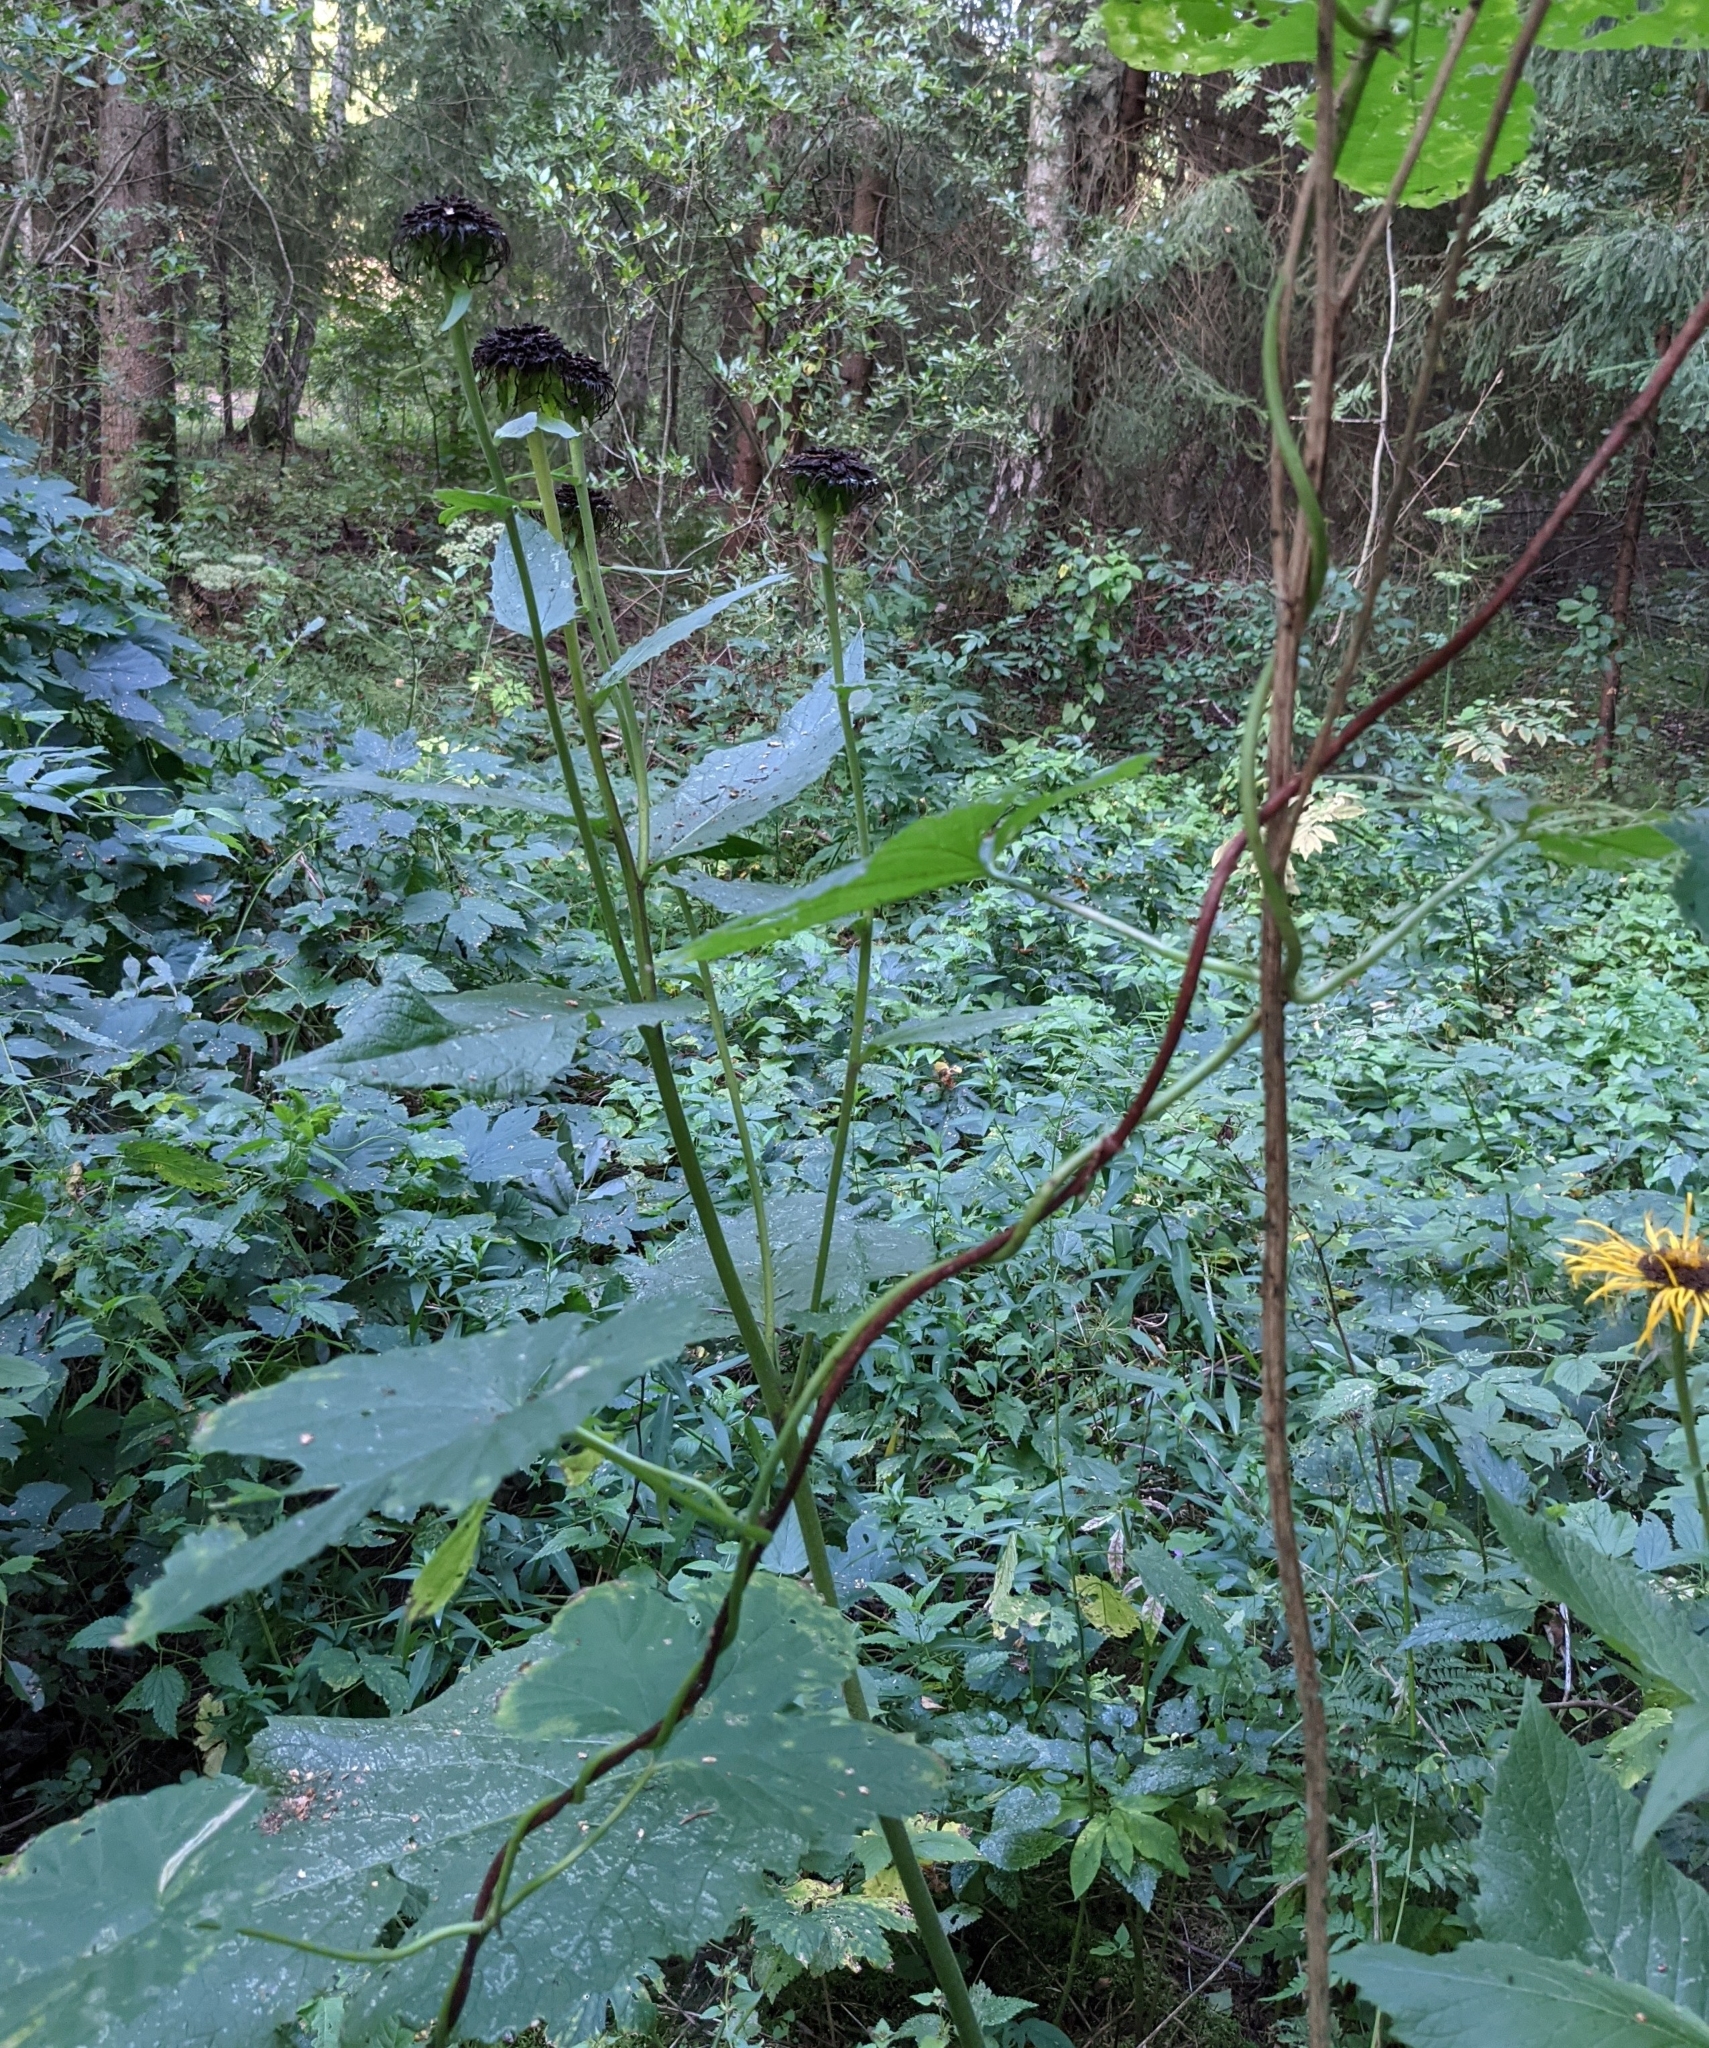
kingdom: Plantae
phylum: Tracheophyta
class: Magnoliopsida
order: Asterales
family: Asteraceae
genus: Telekia
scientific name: Telekia speciosa
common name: Yellow oxeye
